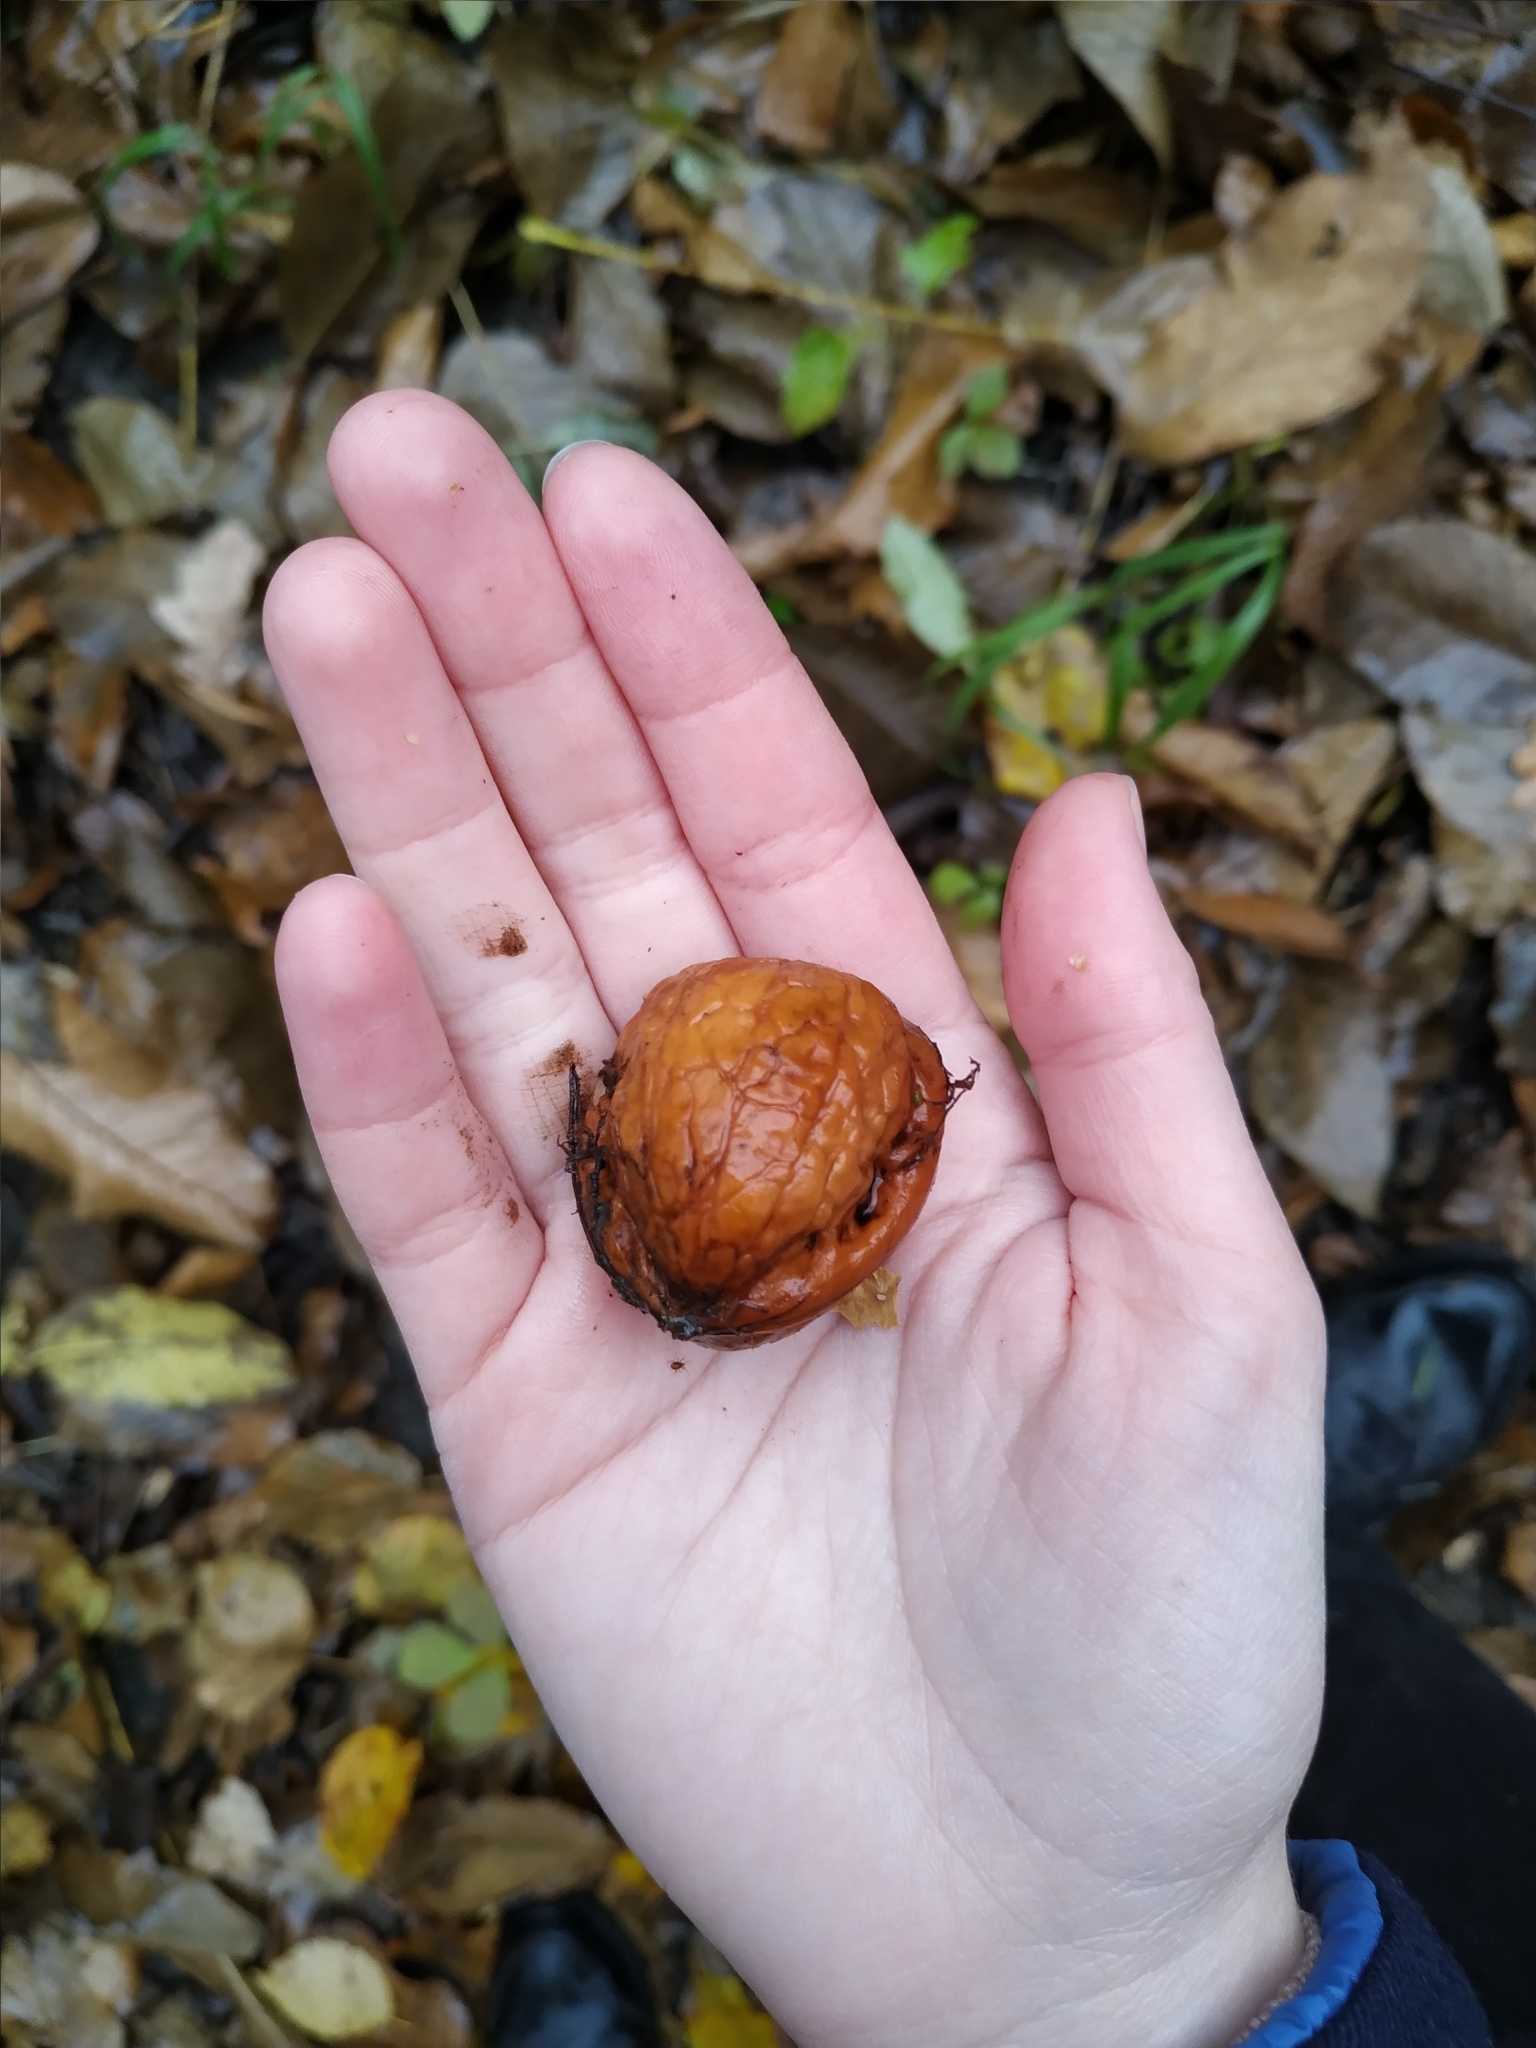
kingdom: Plantae
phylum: Tracheophyta
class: Magnoliopsida
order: Fagales
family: Juglandaceae
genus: Juglans
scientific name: Juglans regia
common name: Walnut
